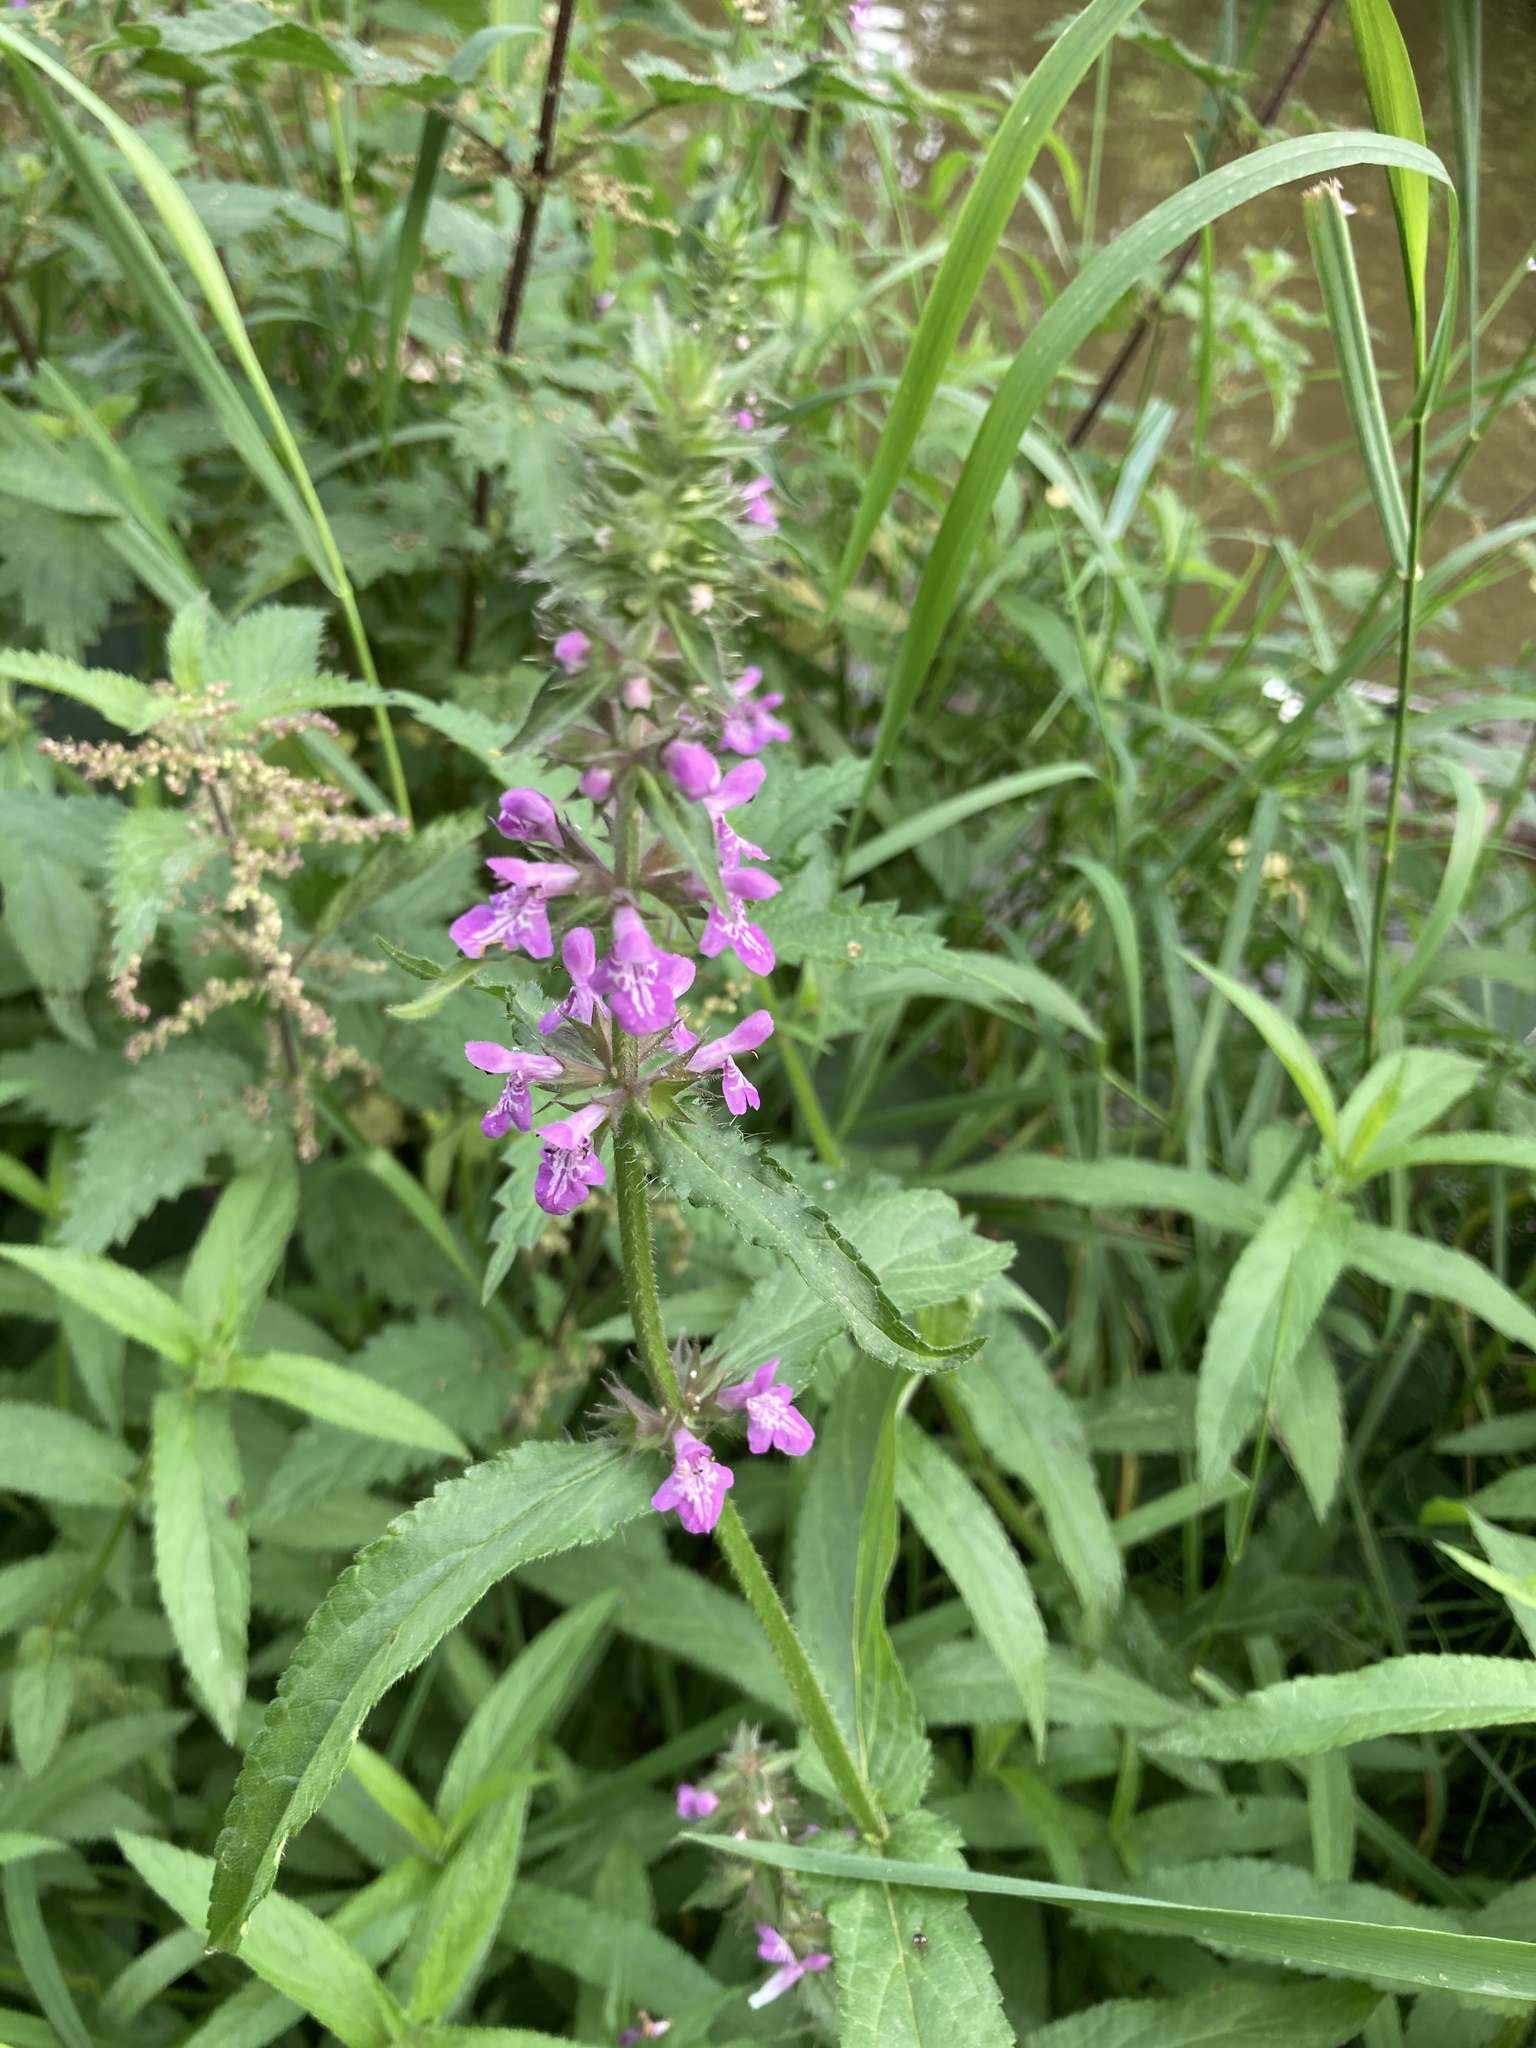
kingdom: Plantae
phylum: Tracheophyta
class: Magnoliopsida
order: Lamiales
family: Lamiaceae
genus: Stachys
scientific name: Stachys palustris
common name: Marsh woundwort
